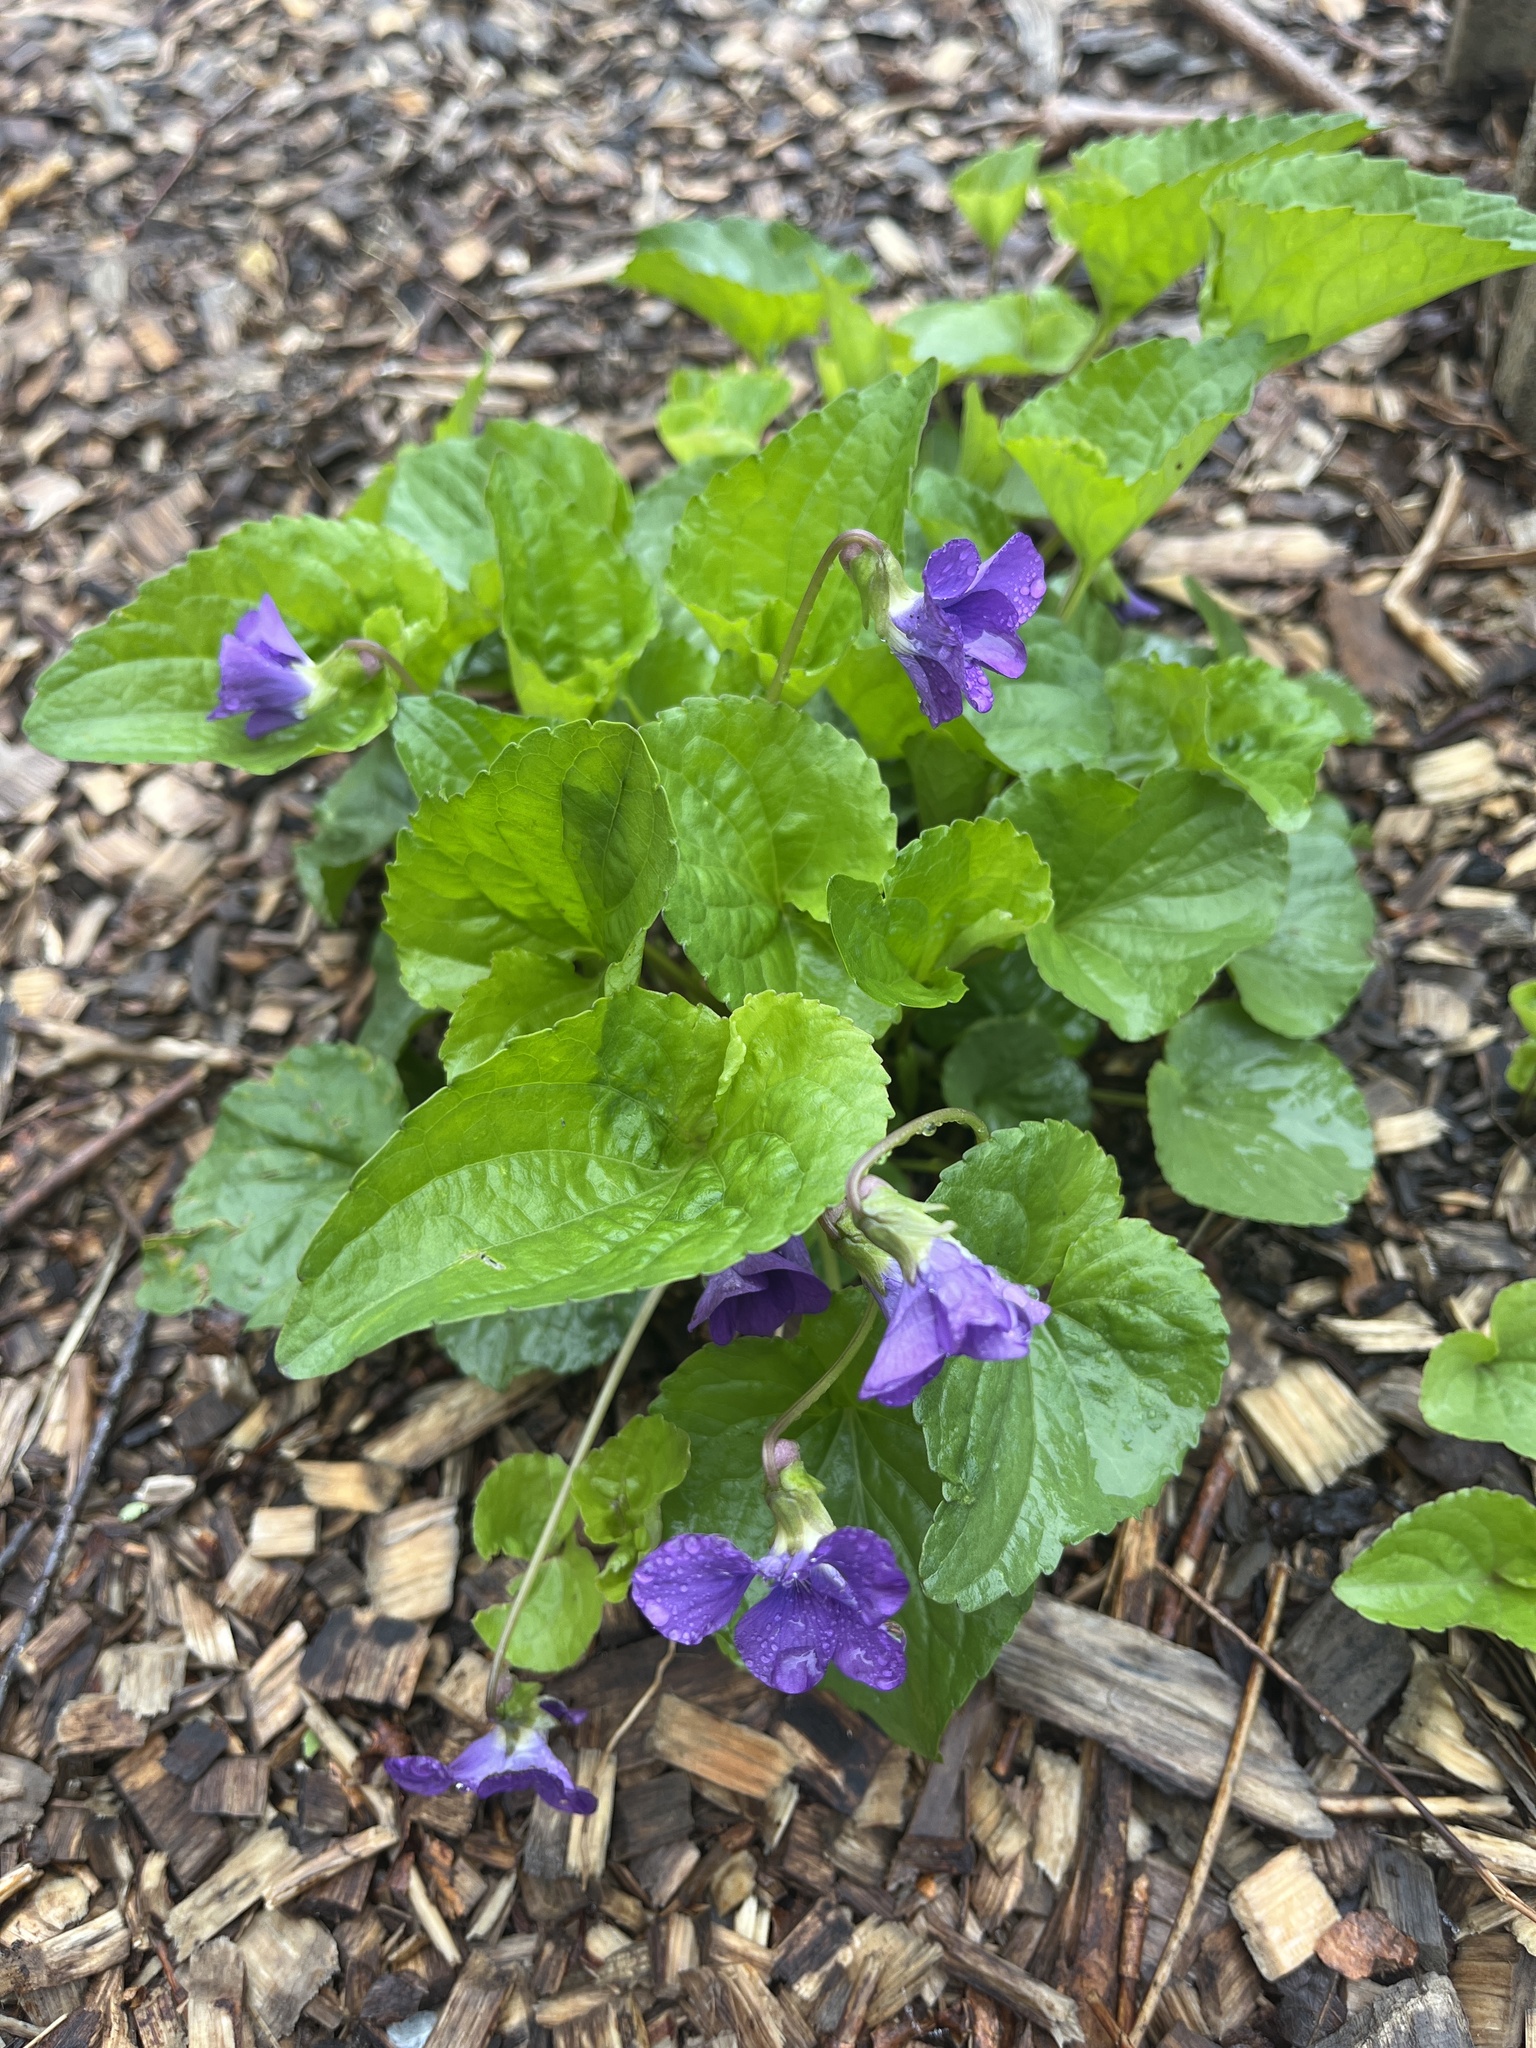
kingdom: Plantae
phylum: Tracheophyta
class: Magnoliopsida
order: Malpighiales
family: Violaceae
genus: Viola
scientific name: Viola sororia
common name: Dooryard violet
